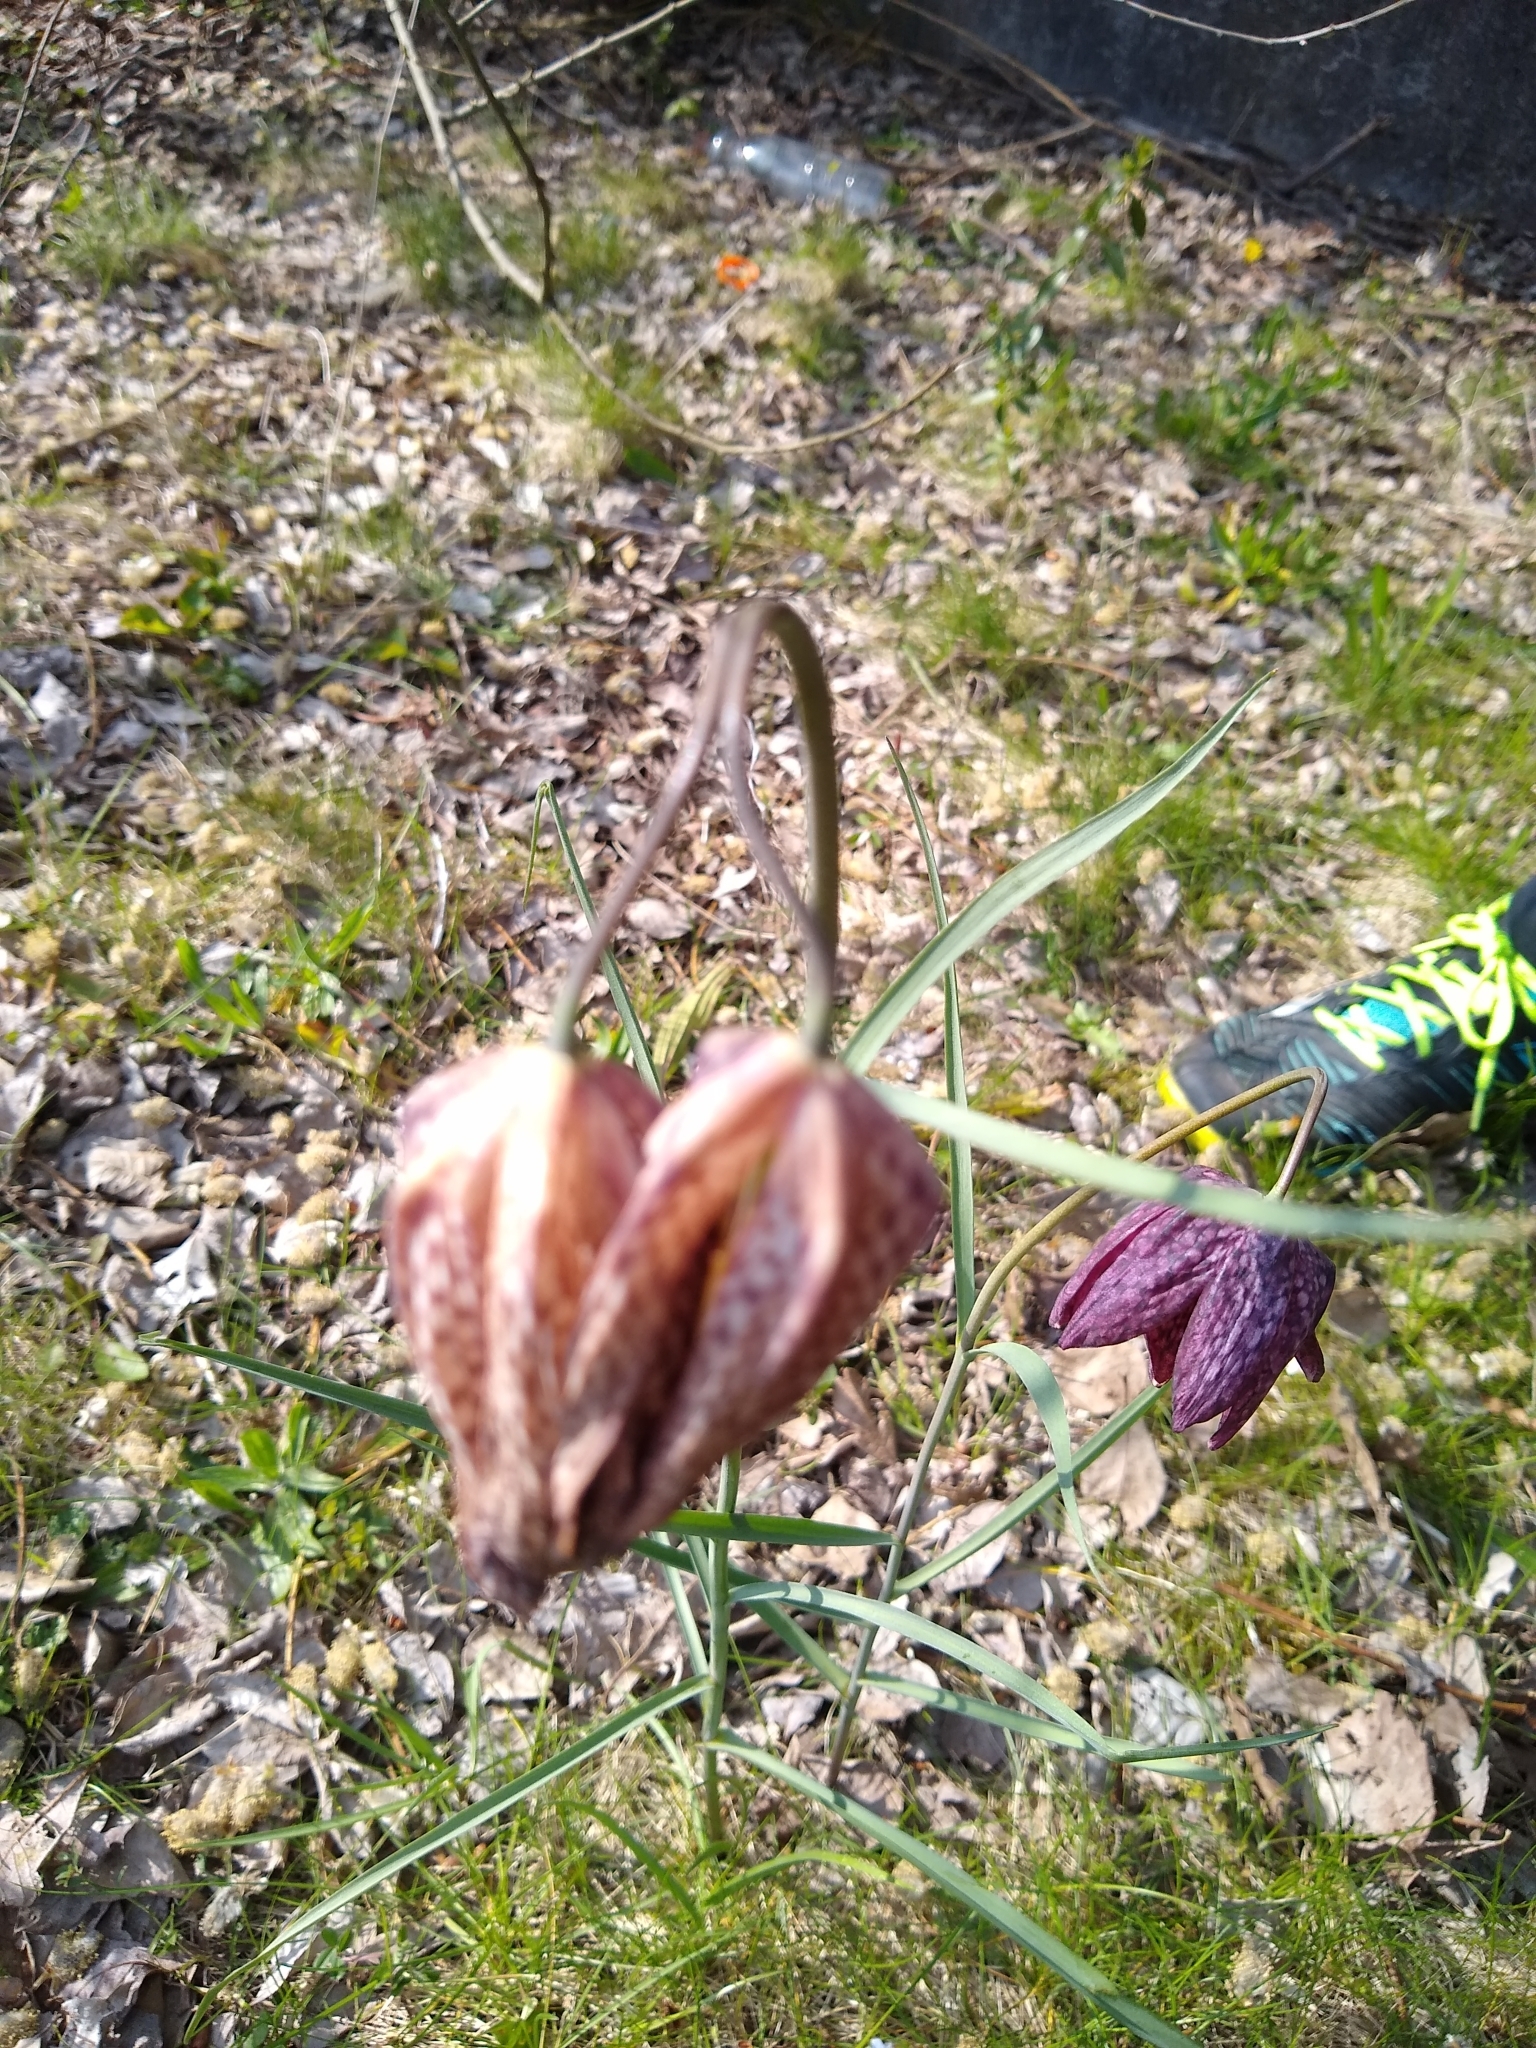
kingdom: Plantae
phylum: Tracheophyta
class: Liliopsida
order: Liliales
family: Liliaceae
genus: Fritillaria
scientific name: Fritillaria meleagris
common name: Fritillary
